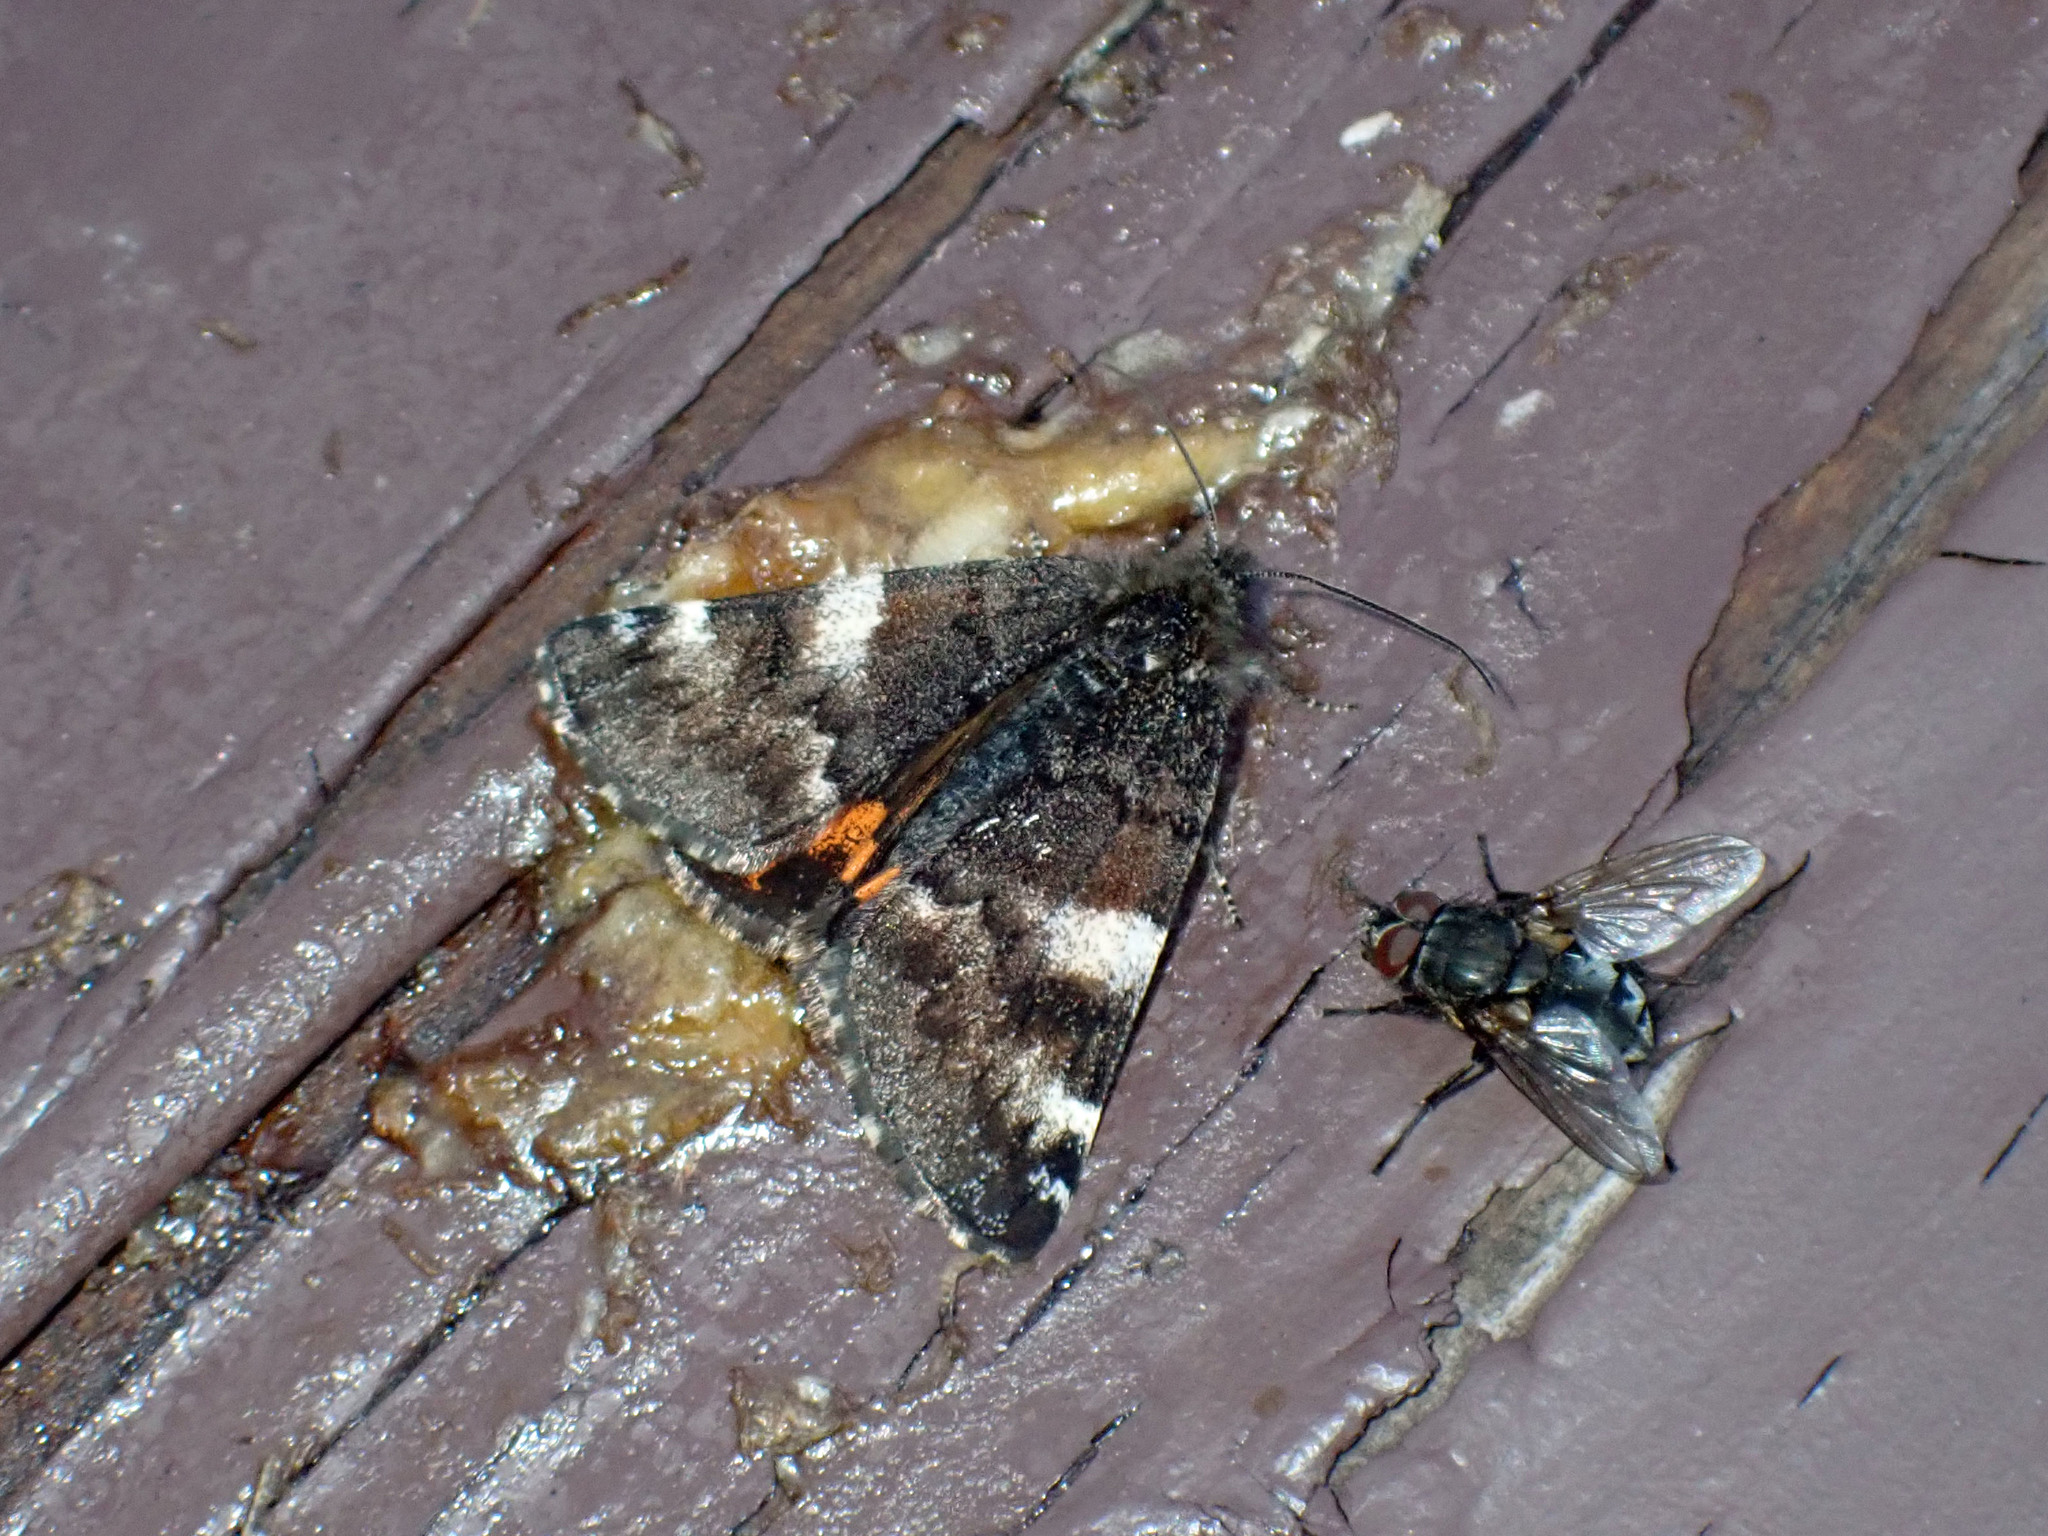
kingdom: Animalia
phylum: Arthropoda
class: Insecta
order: Lepidoptera
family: Geometridae
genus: Archiearis
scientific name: Archiearis infans
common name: First born geometer
